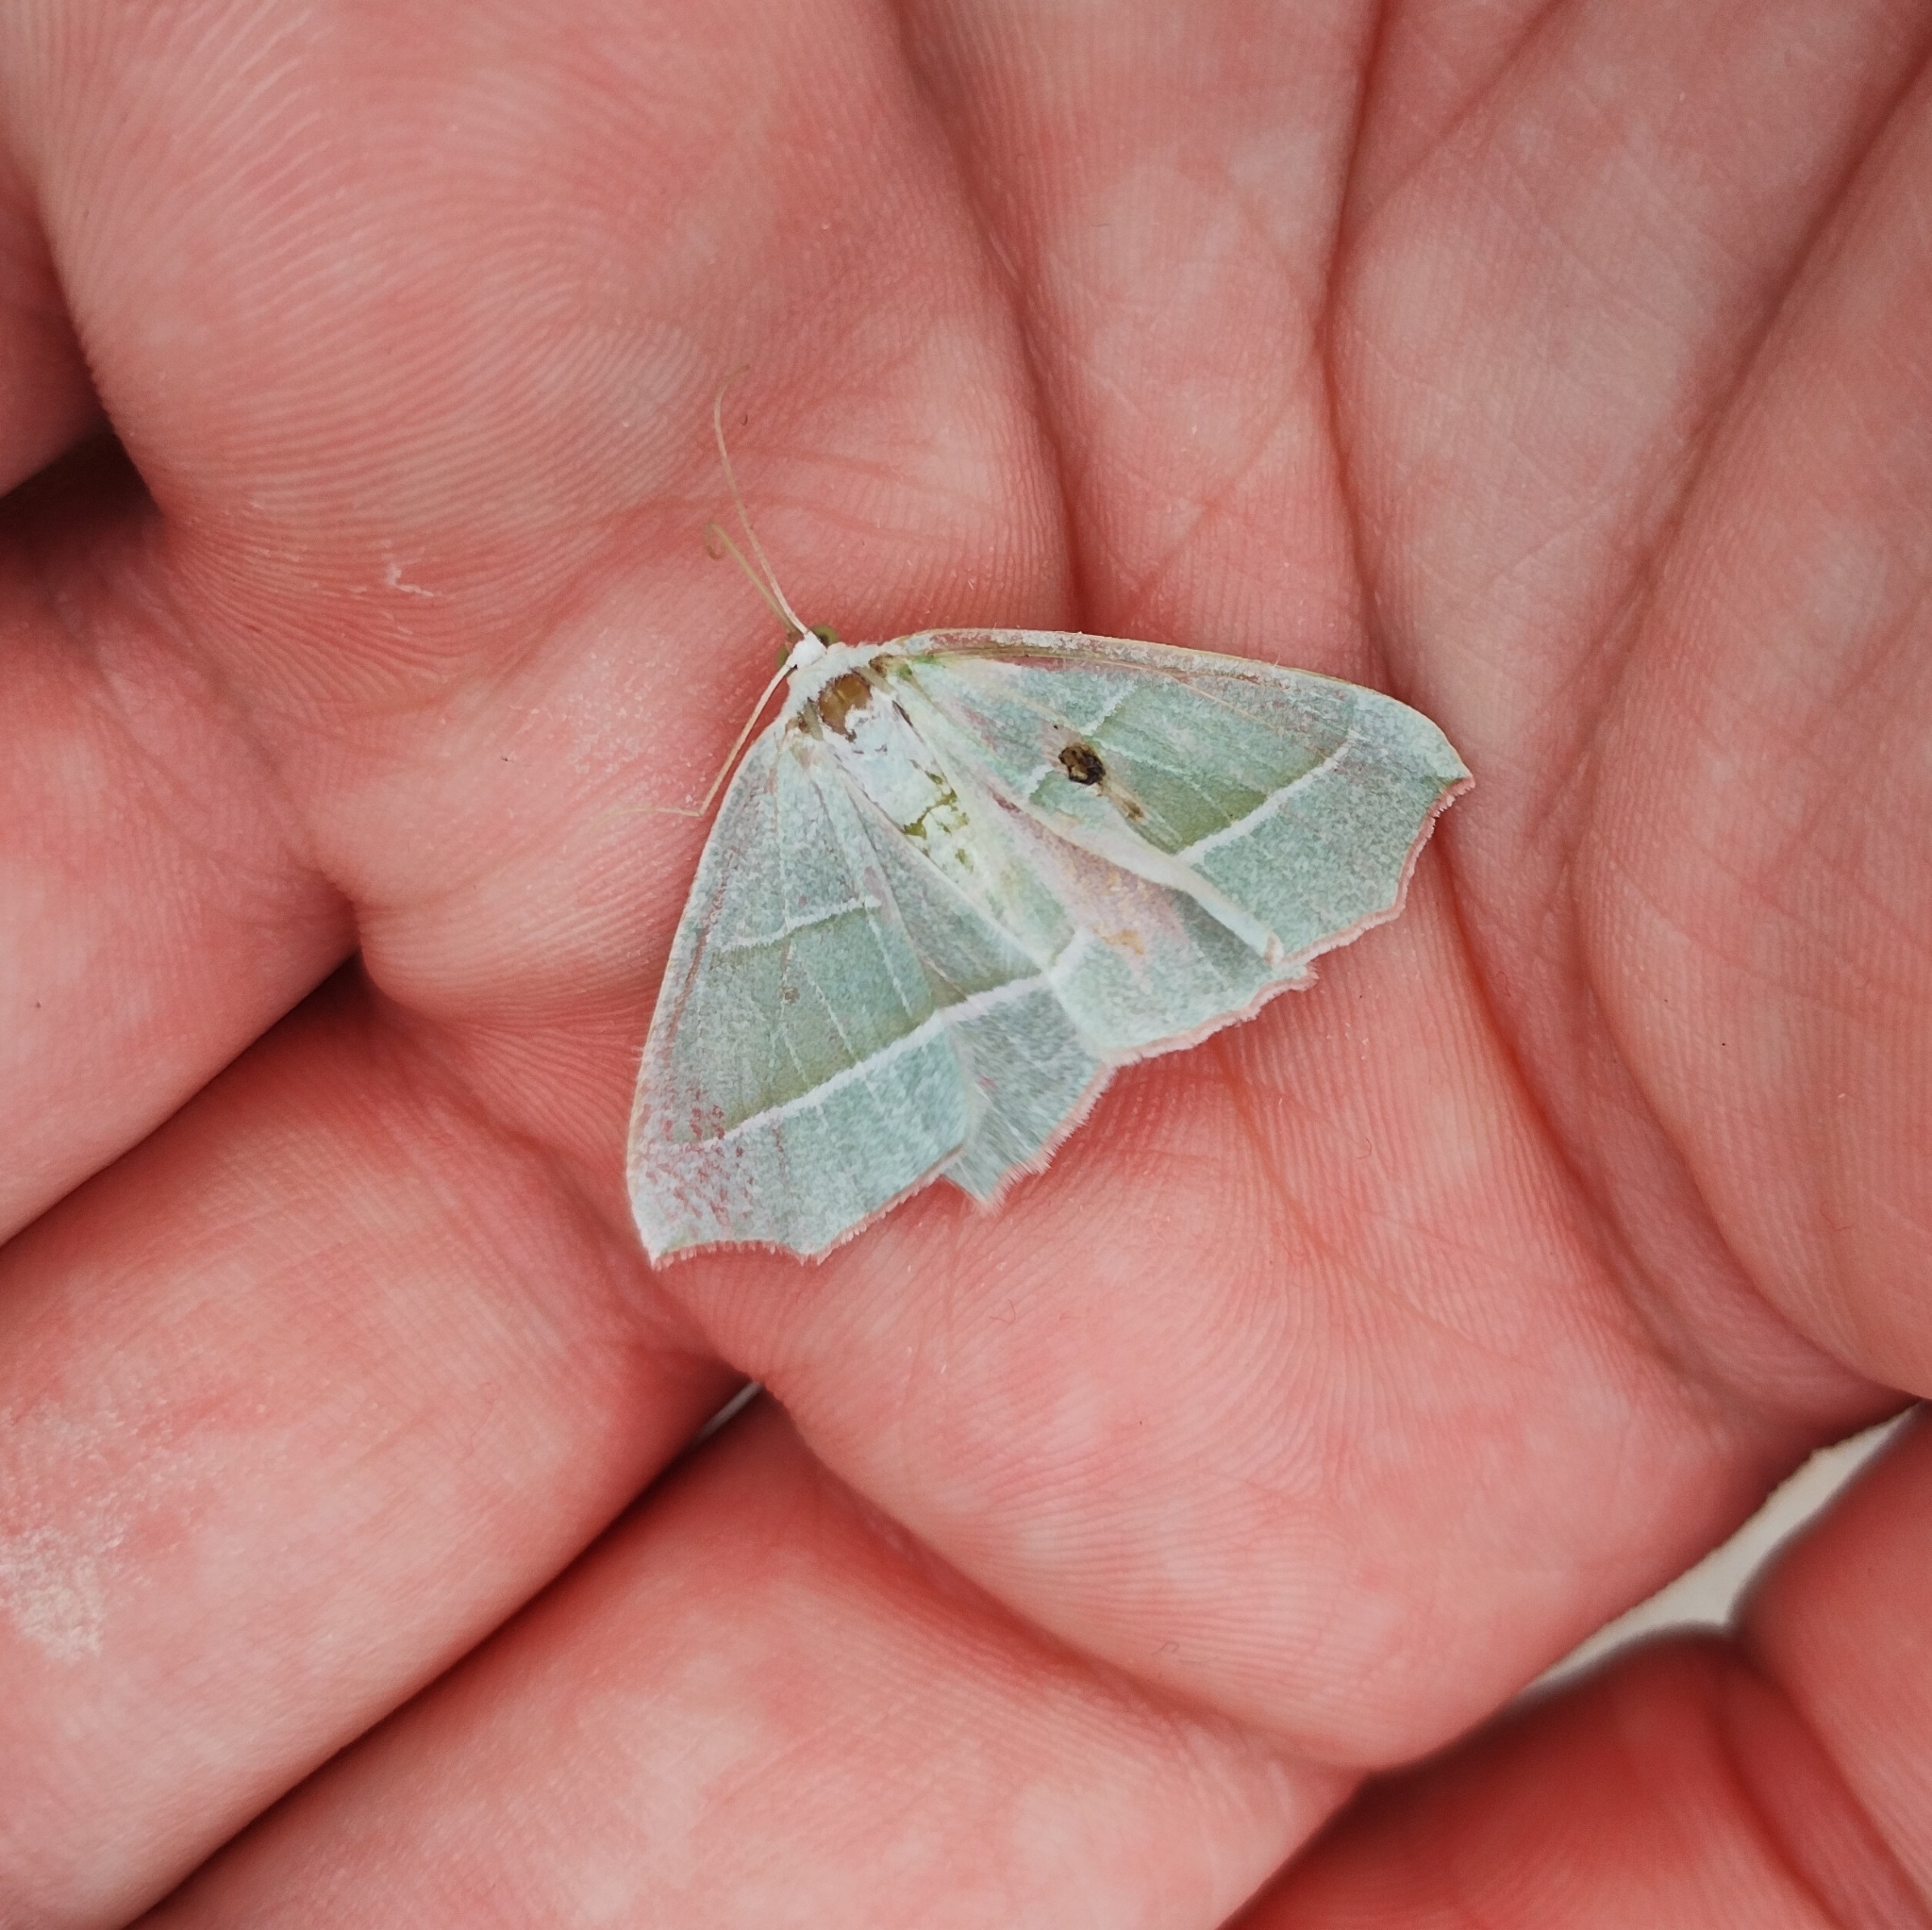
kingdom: Animalia
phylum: Arthropoda
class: Insecta
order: Lepidoptera
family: Geometridae
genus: Campaea
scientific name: Campaea margaritaria
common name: Light emerald
